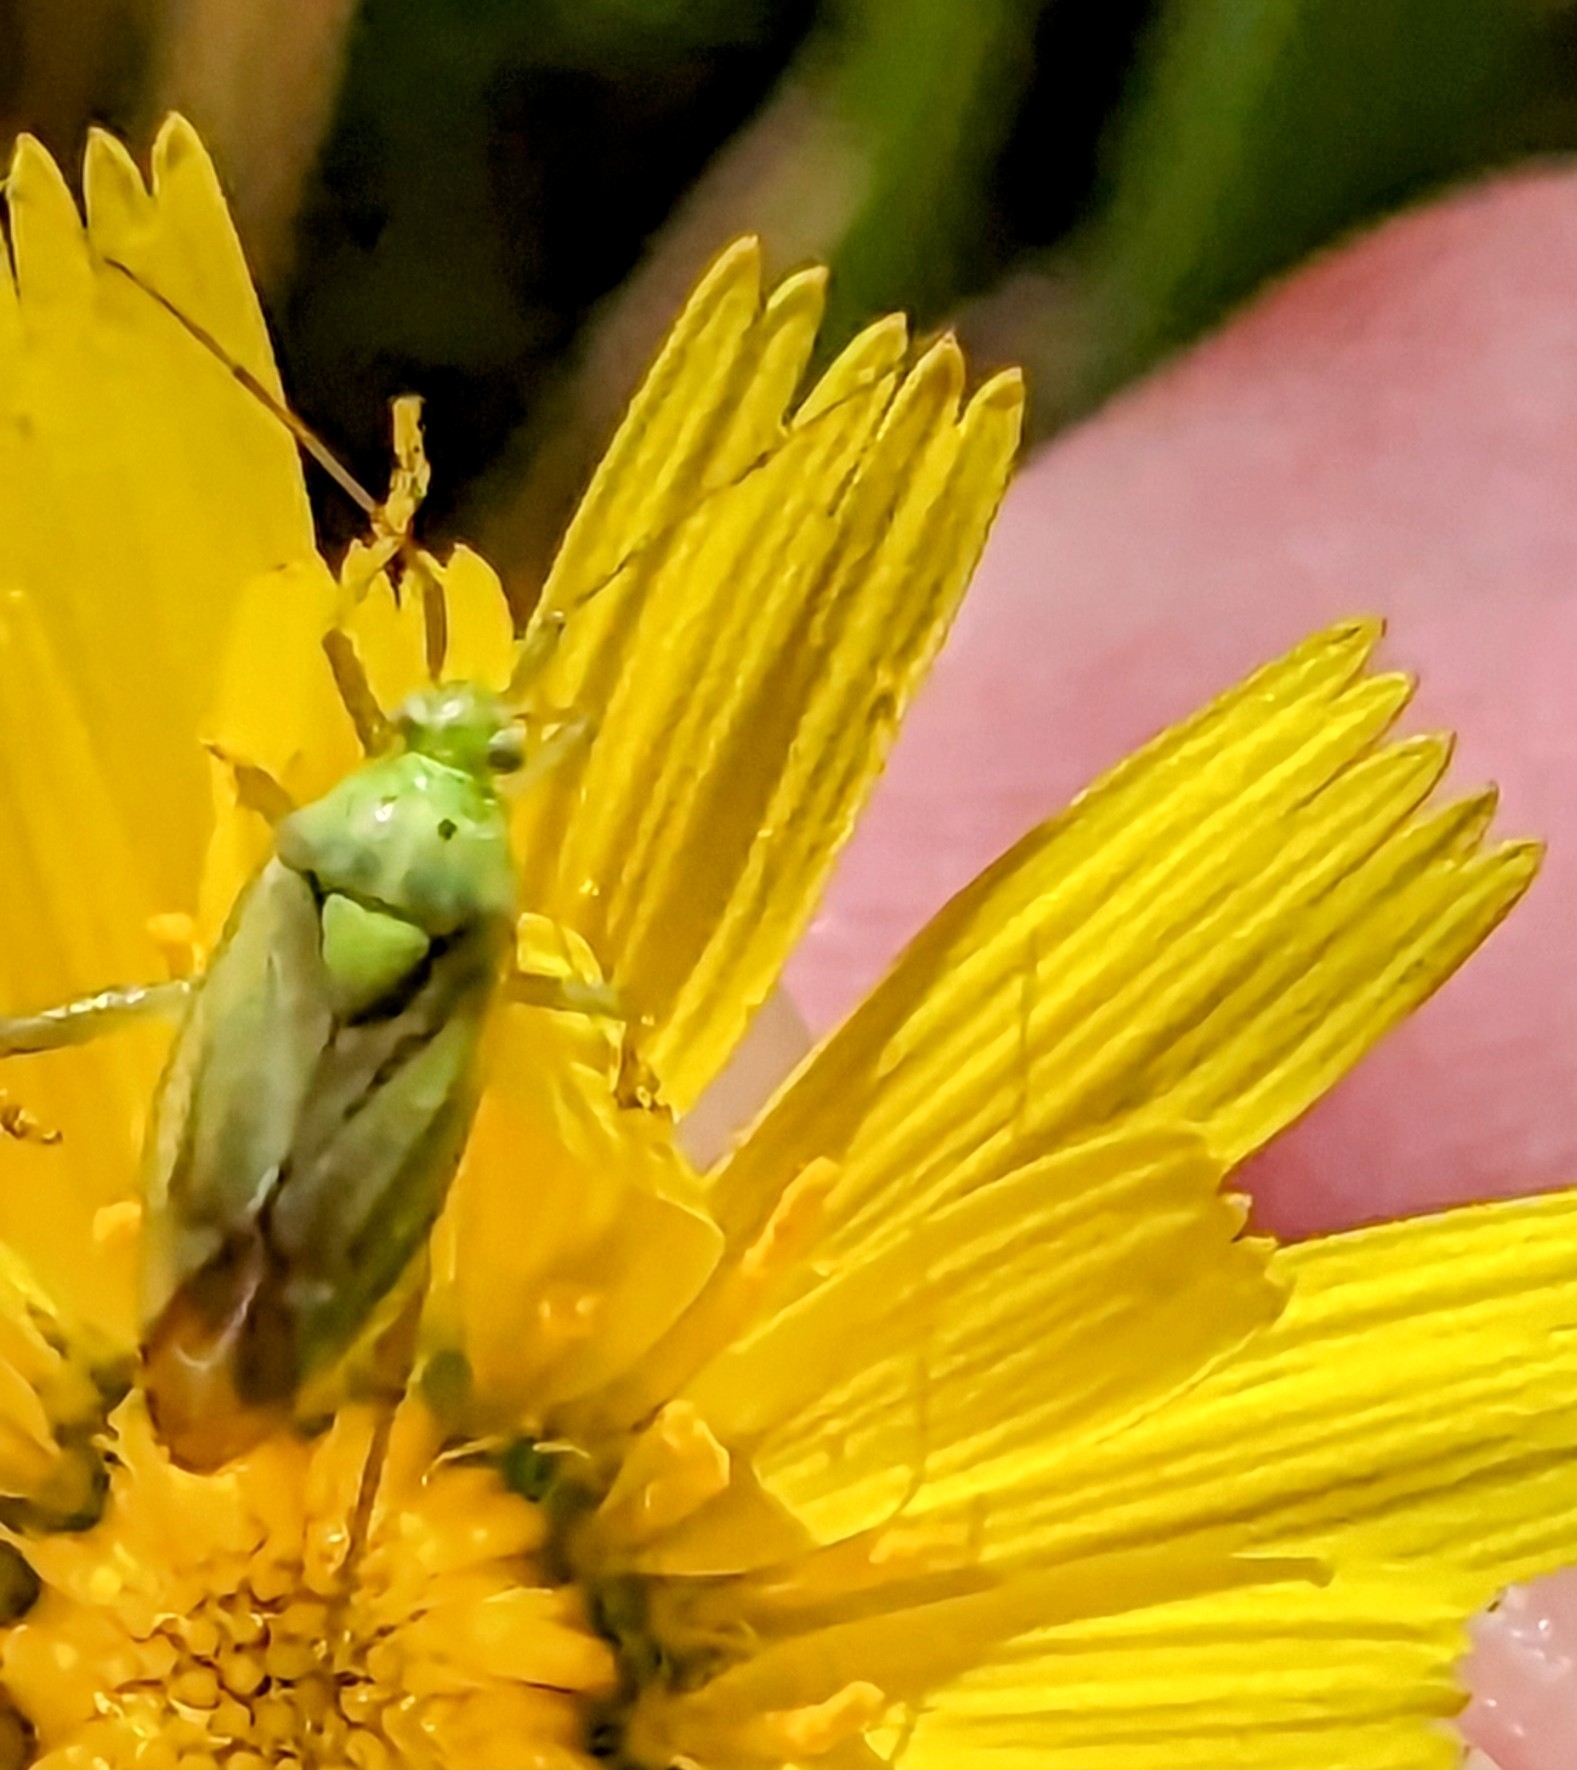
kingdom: Animalia
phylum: Arthropoda
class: Insecta
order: Hemiptera
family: Miridae
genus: Closterotomus
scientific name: Closterotomus norvegicus
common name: Plant bug
